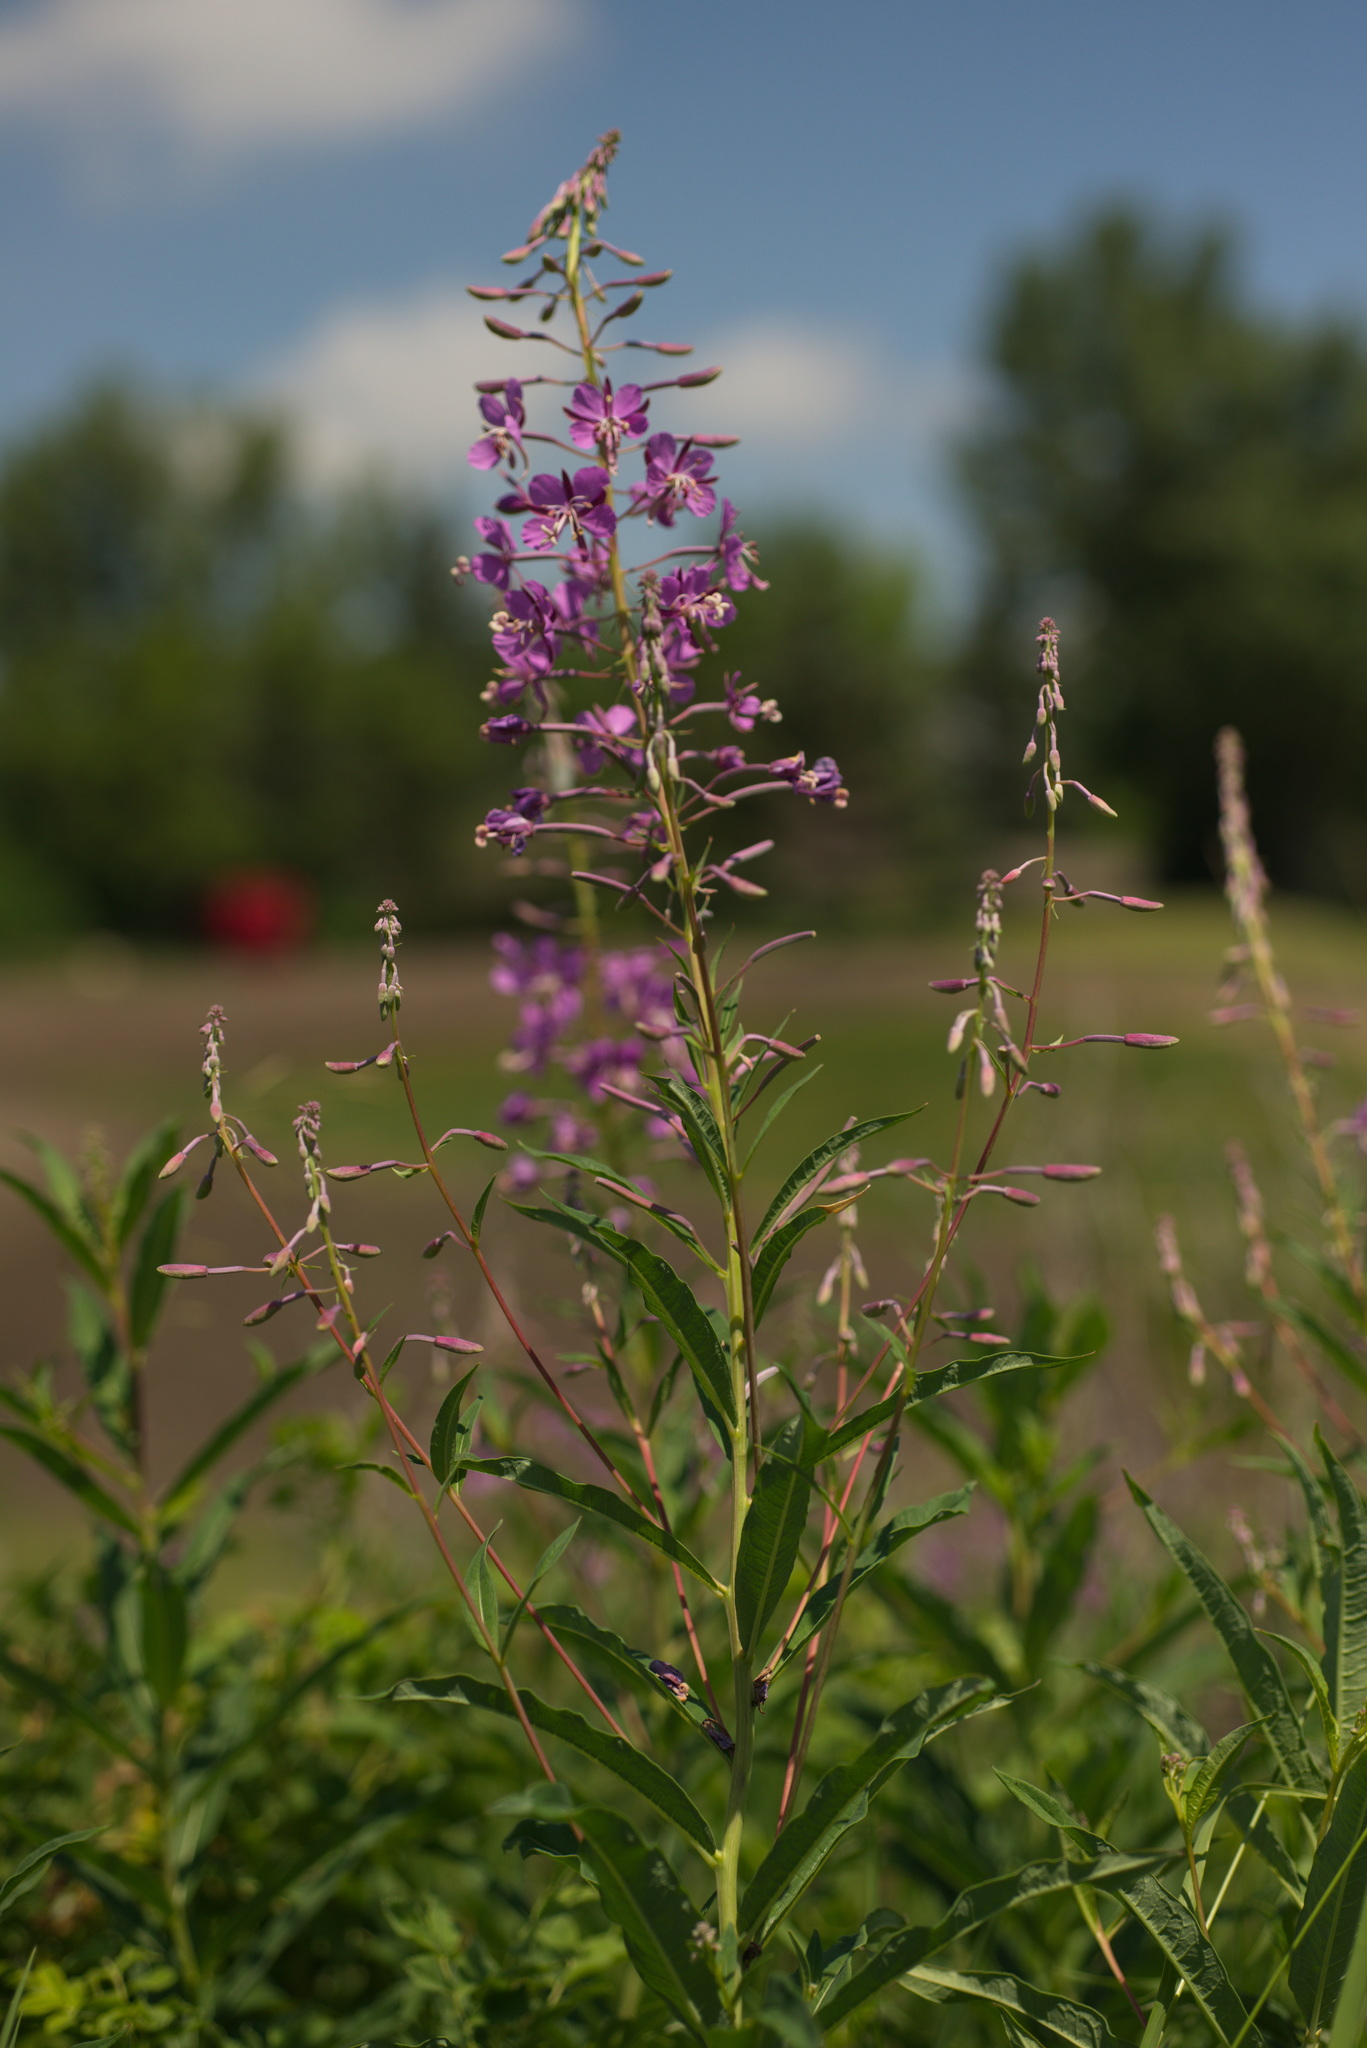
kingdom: Plantae
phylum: Tracheophyta
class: Magnoliopsida
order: Myrtales
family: Onagraceae
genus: Chamaenerion
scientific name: Chamaenerion angustifolium
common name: Fireweed
